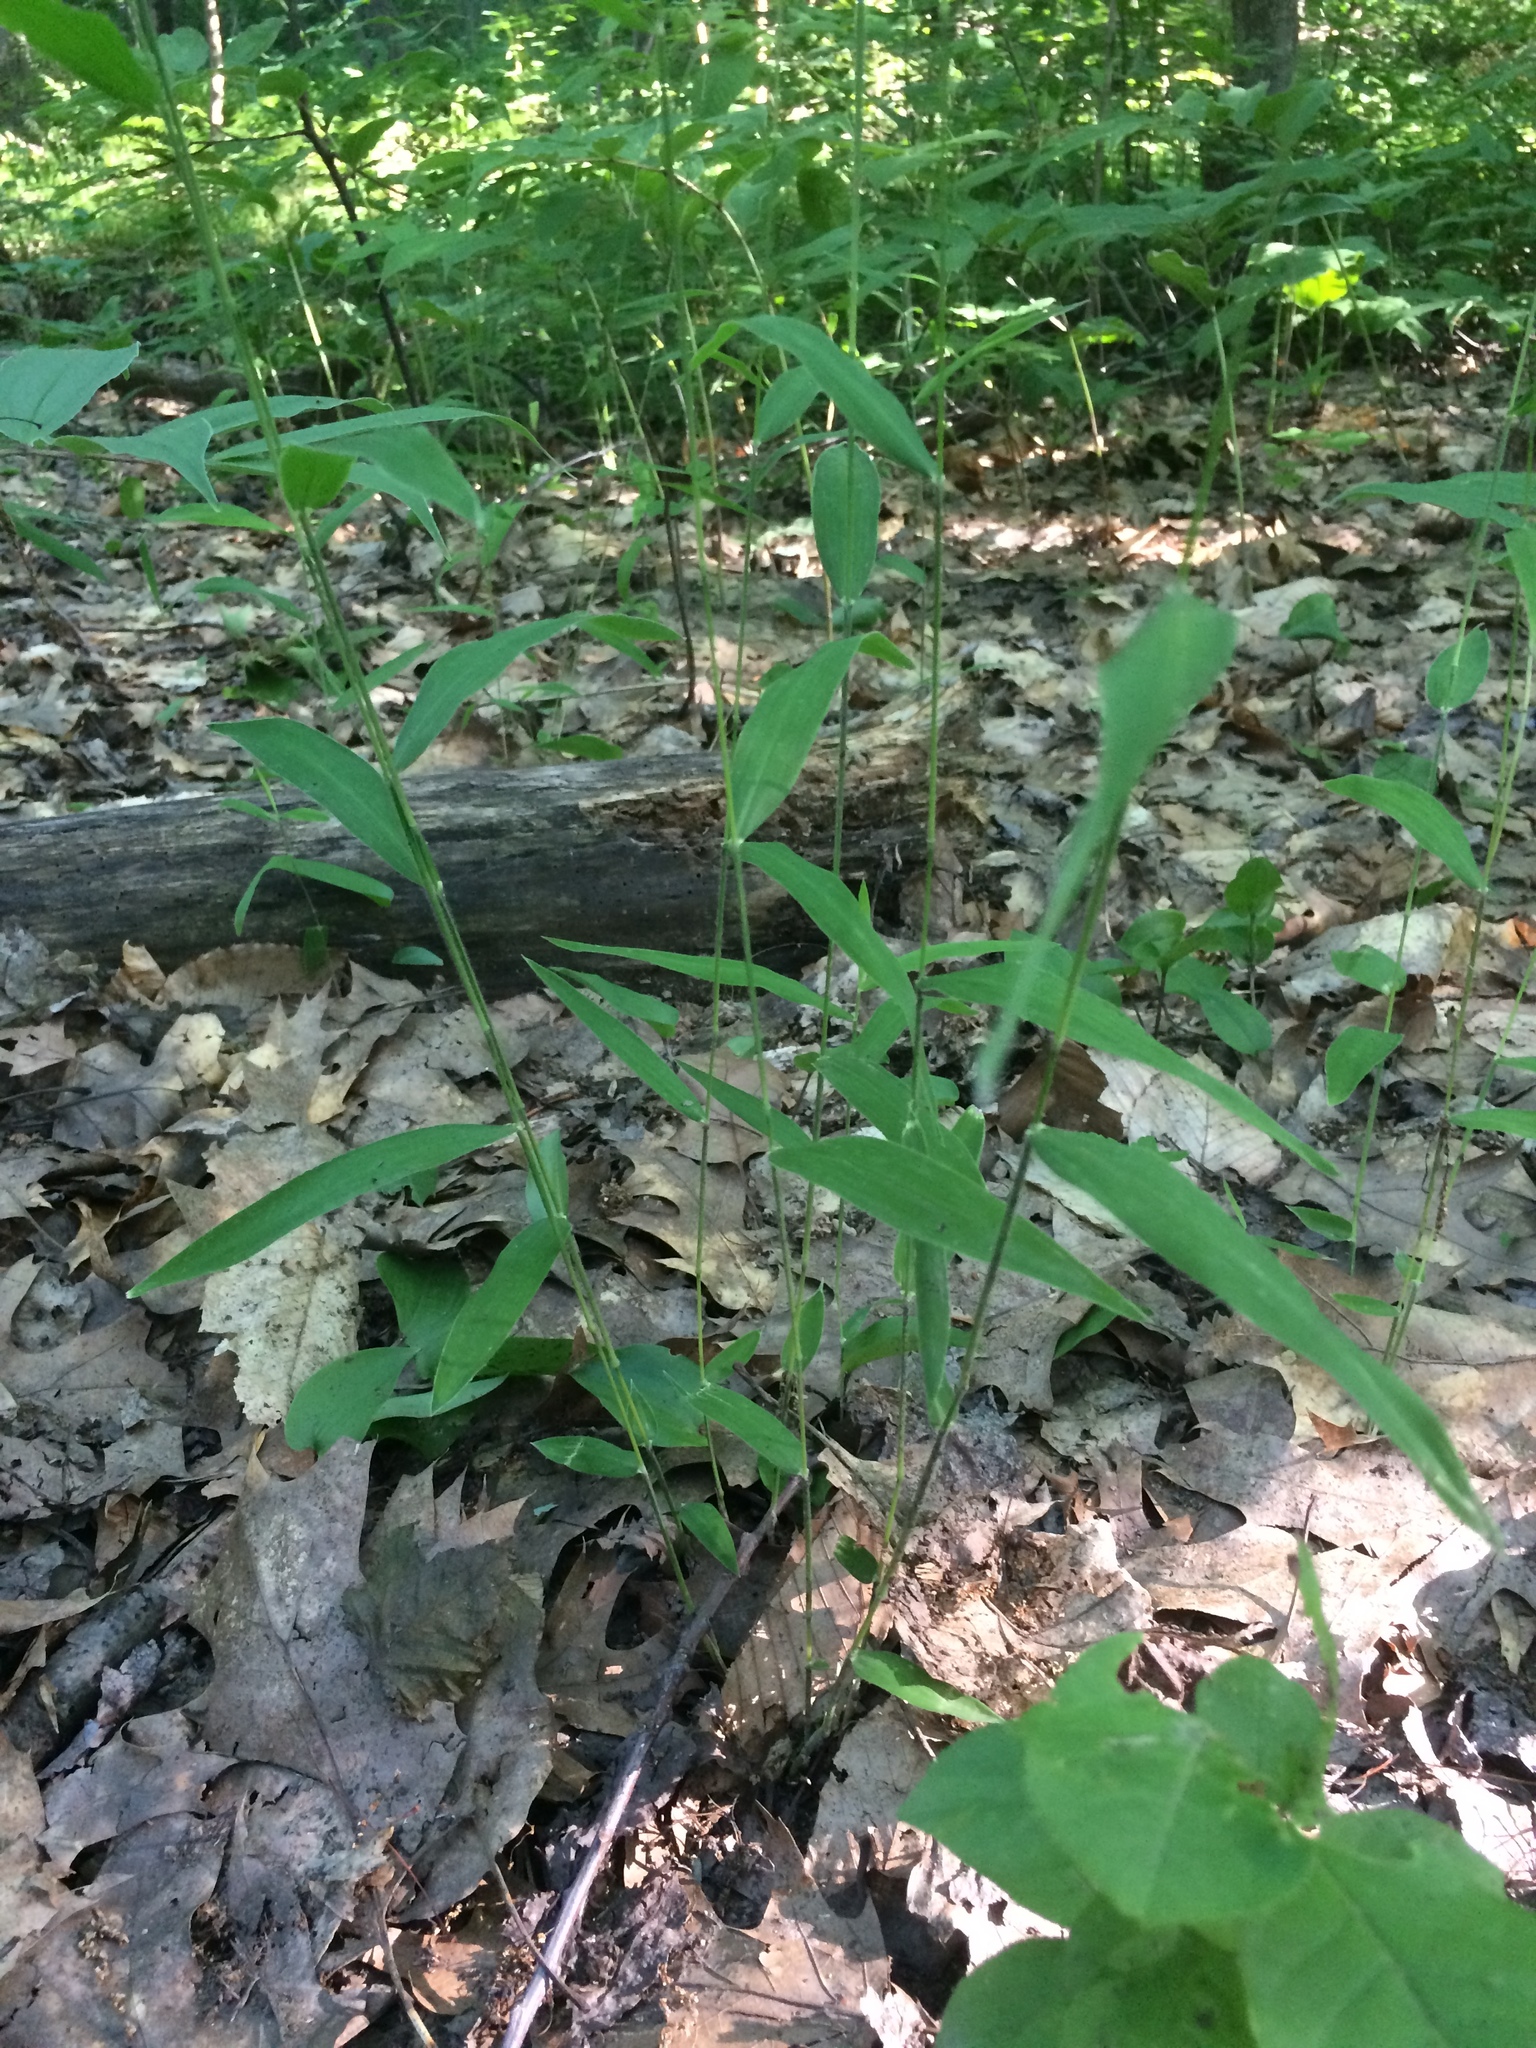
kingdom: Plantae
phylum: Tracheophyta
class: Liliopsida
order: Poales
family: Poaceae
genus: Brachyelytrum
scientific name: Brachyelytrum aristosum
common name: Northern shorthusk
